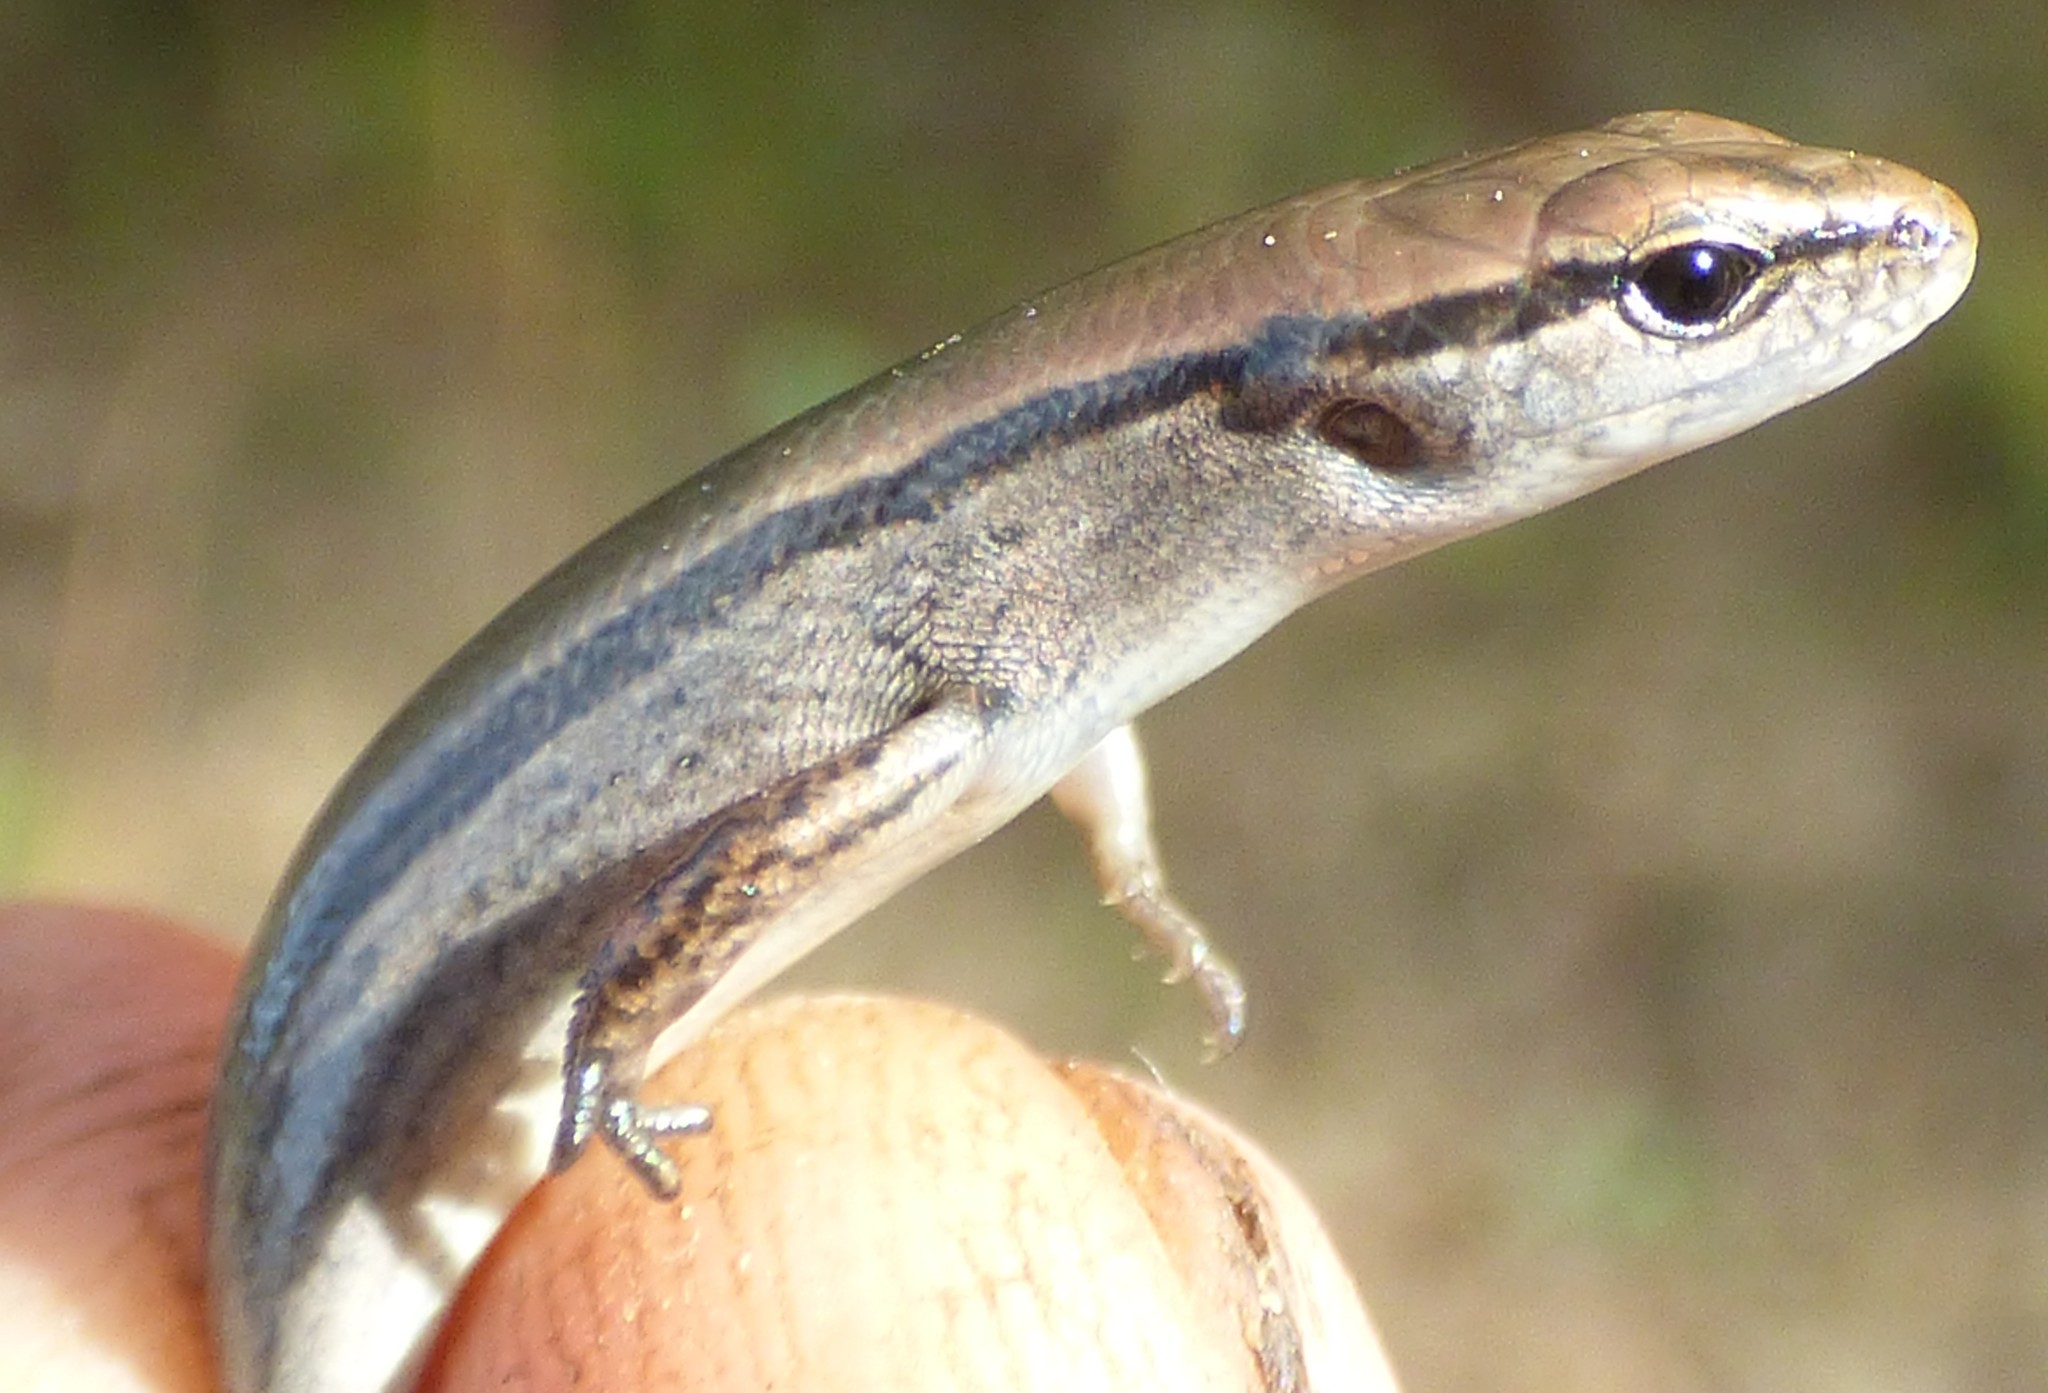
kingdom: Animalia
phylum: Chordata
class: Squamata
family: Scincidae
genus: Scincella
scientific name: Scincella lateralis
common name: Ground skink
